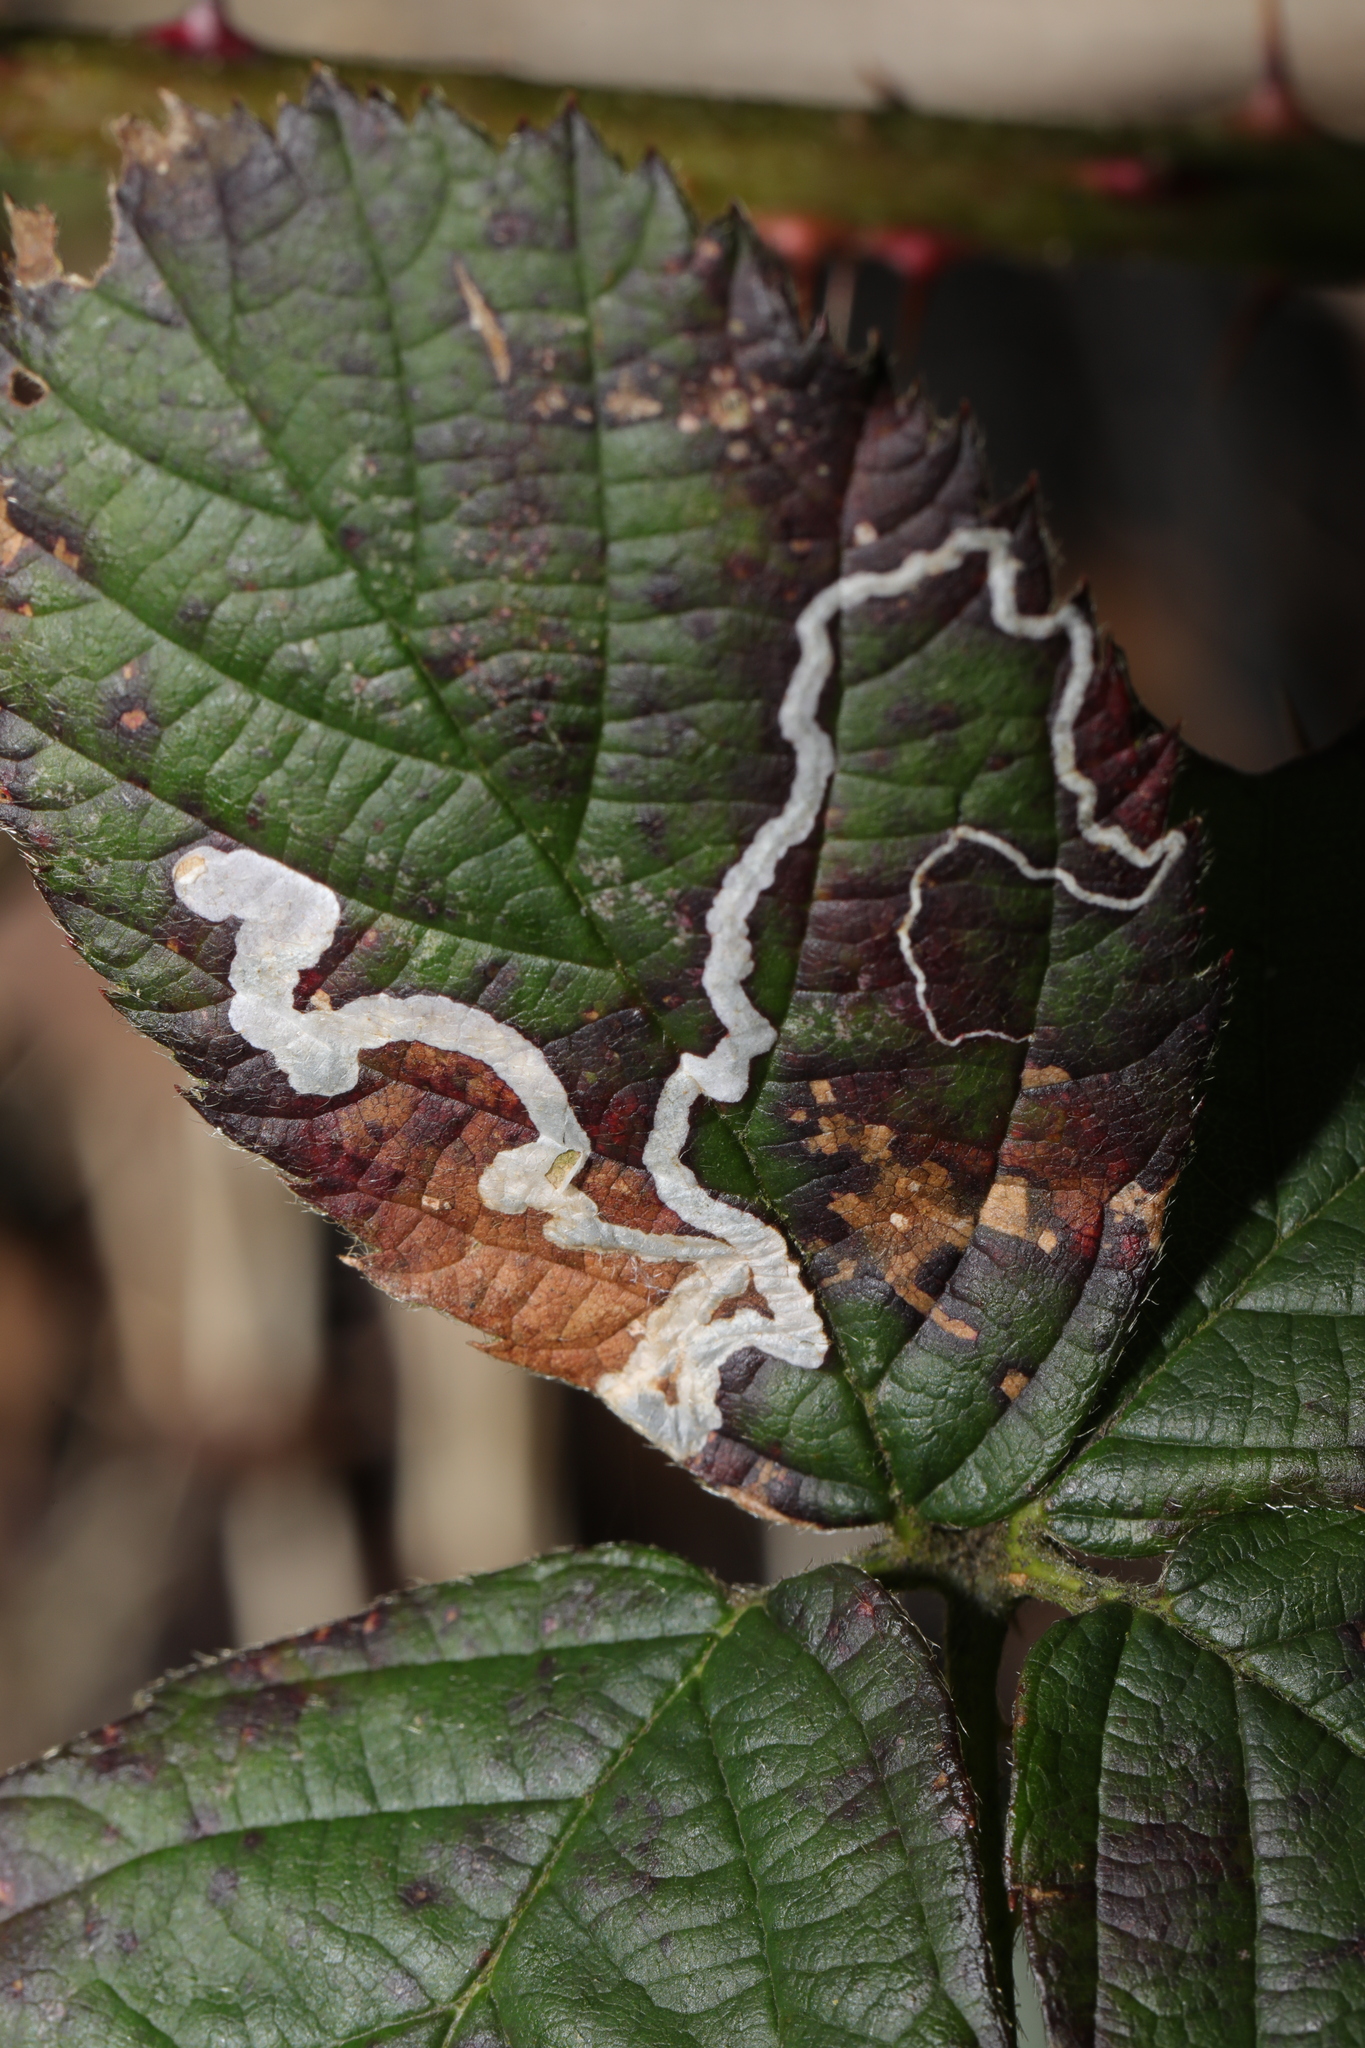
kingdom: Animalia
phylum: Arthropoda
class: Insecta
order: Lepidoptera
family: Nepticulidae
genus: Stigmella
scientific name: Stigmella aurella
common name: Golden pigmy
